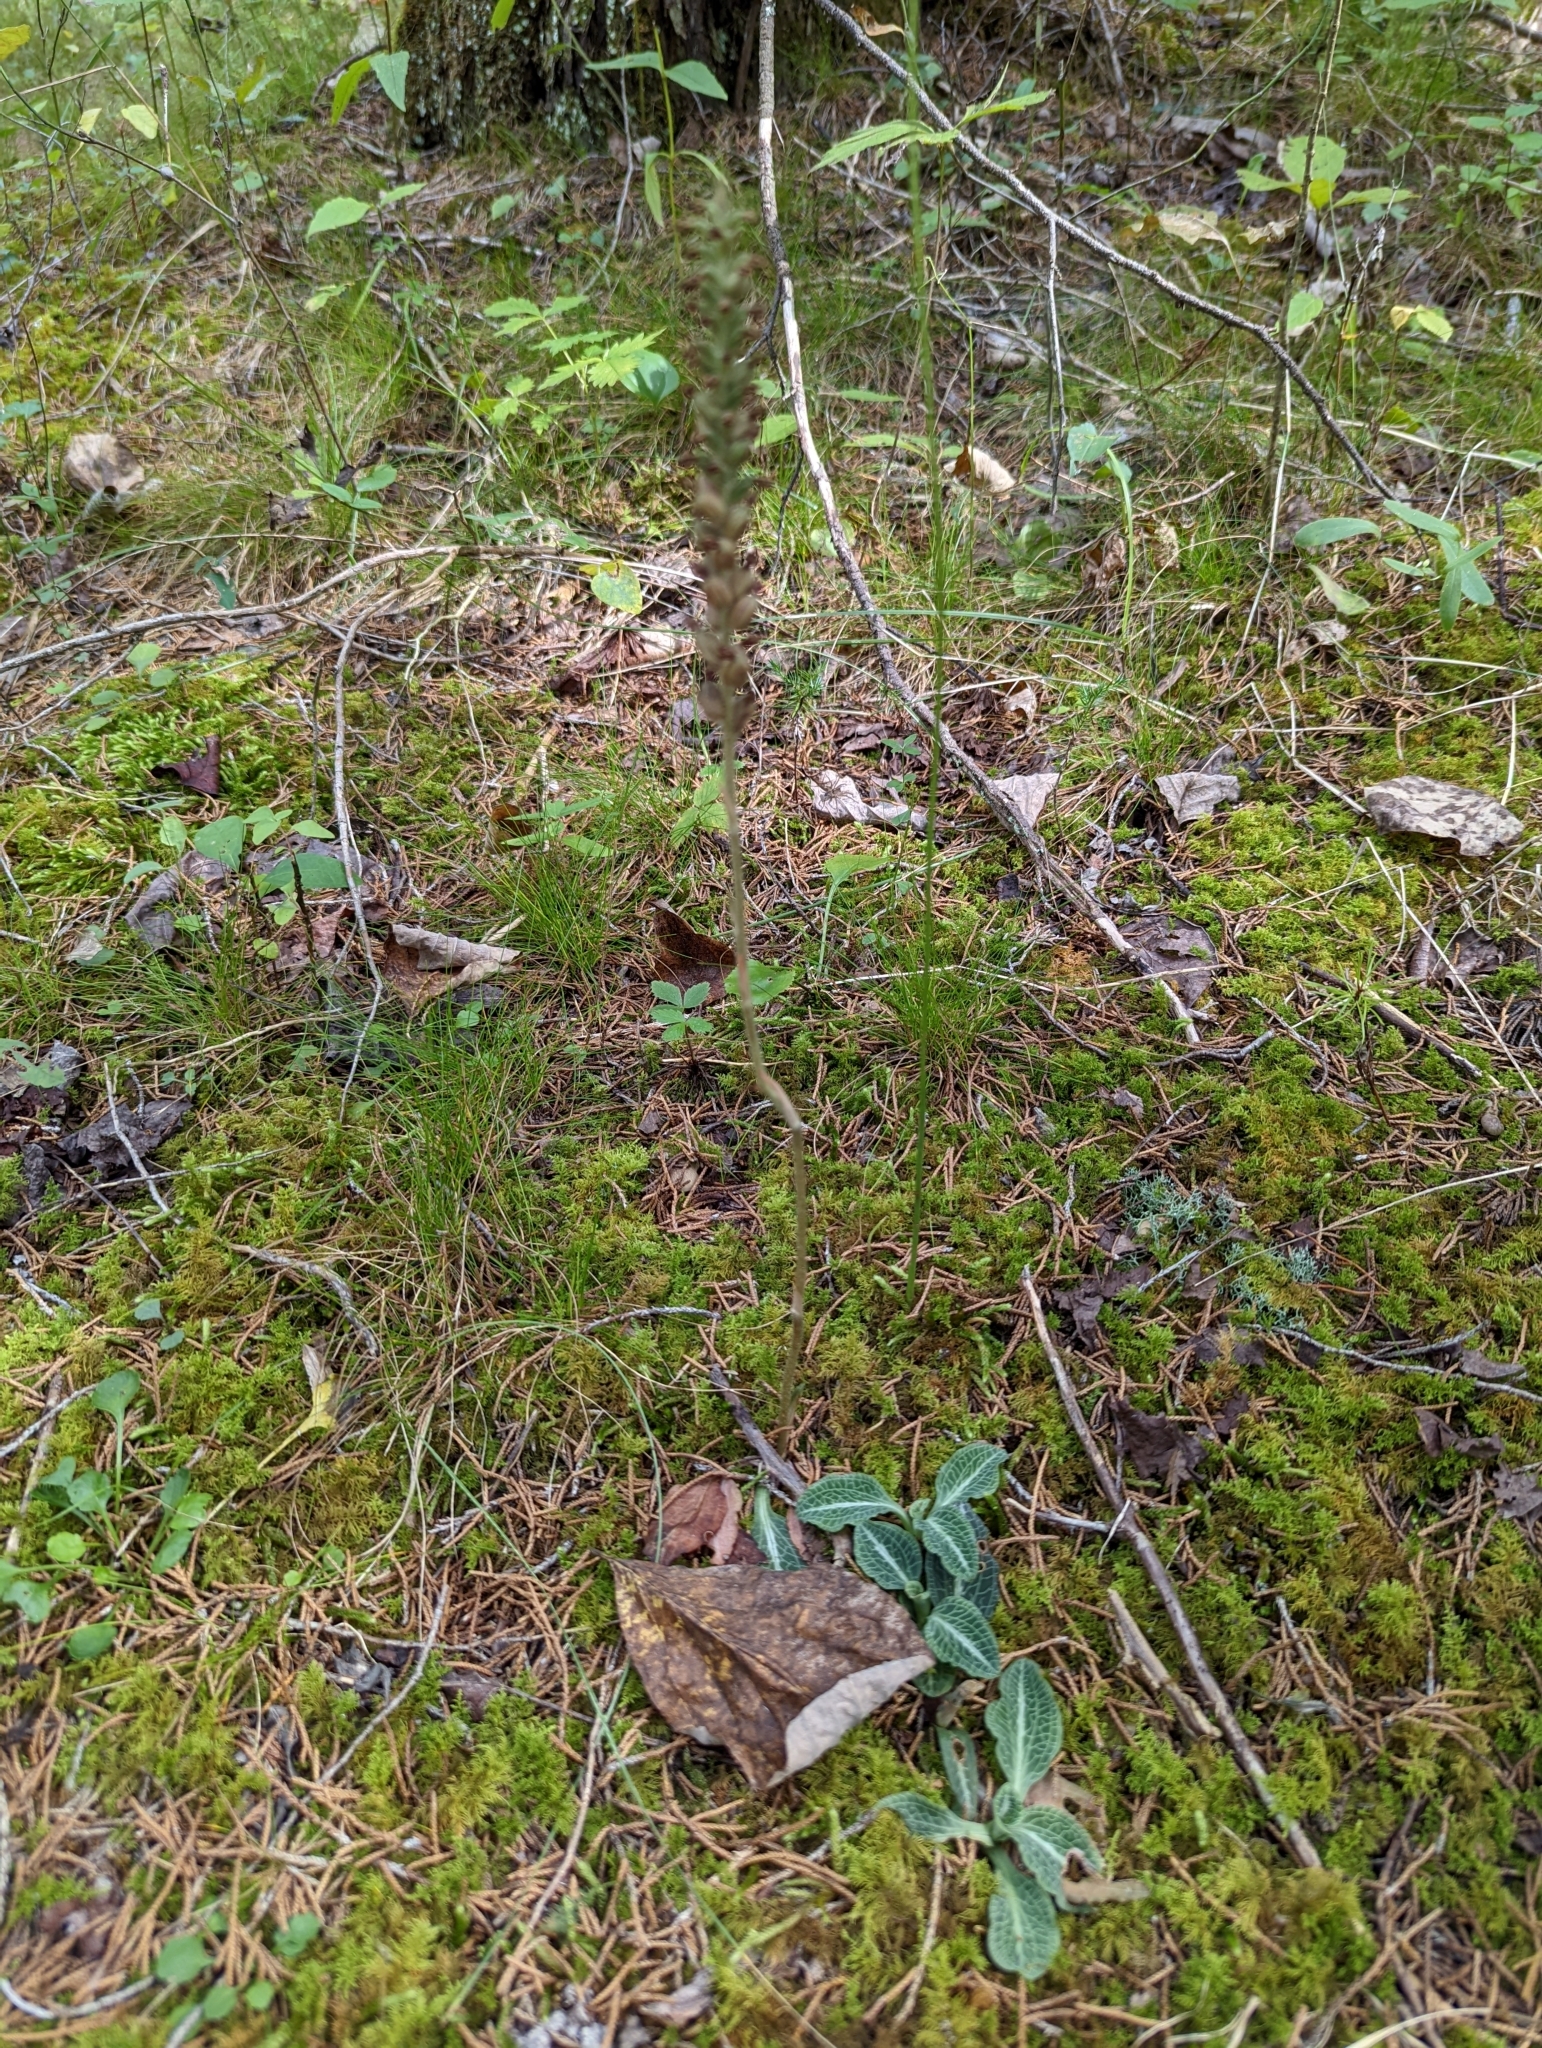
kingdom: Plantae
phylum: Tracheophyta
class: Liliopsida
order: Asparagales
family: Orchidaceae
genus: Goodyera
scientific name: Goodyera pubescens
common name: Downy rattlesnake-plantain
